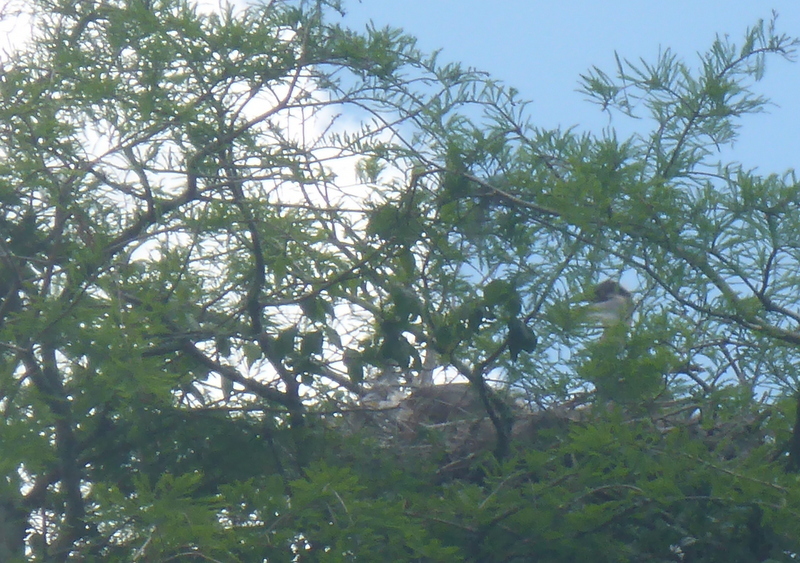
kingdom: Animalia
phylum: Chordata
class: Aves
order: Pelecaniformes
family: Ardeidae
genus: Ardea
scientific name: Ardea herodias
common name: Great blue heron
